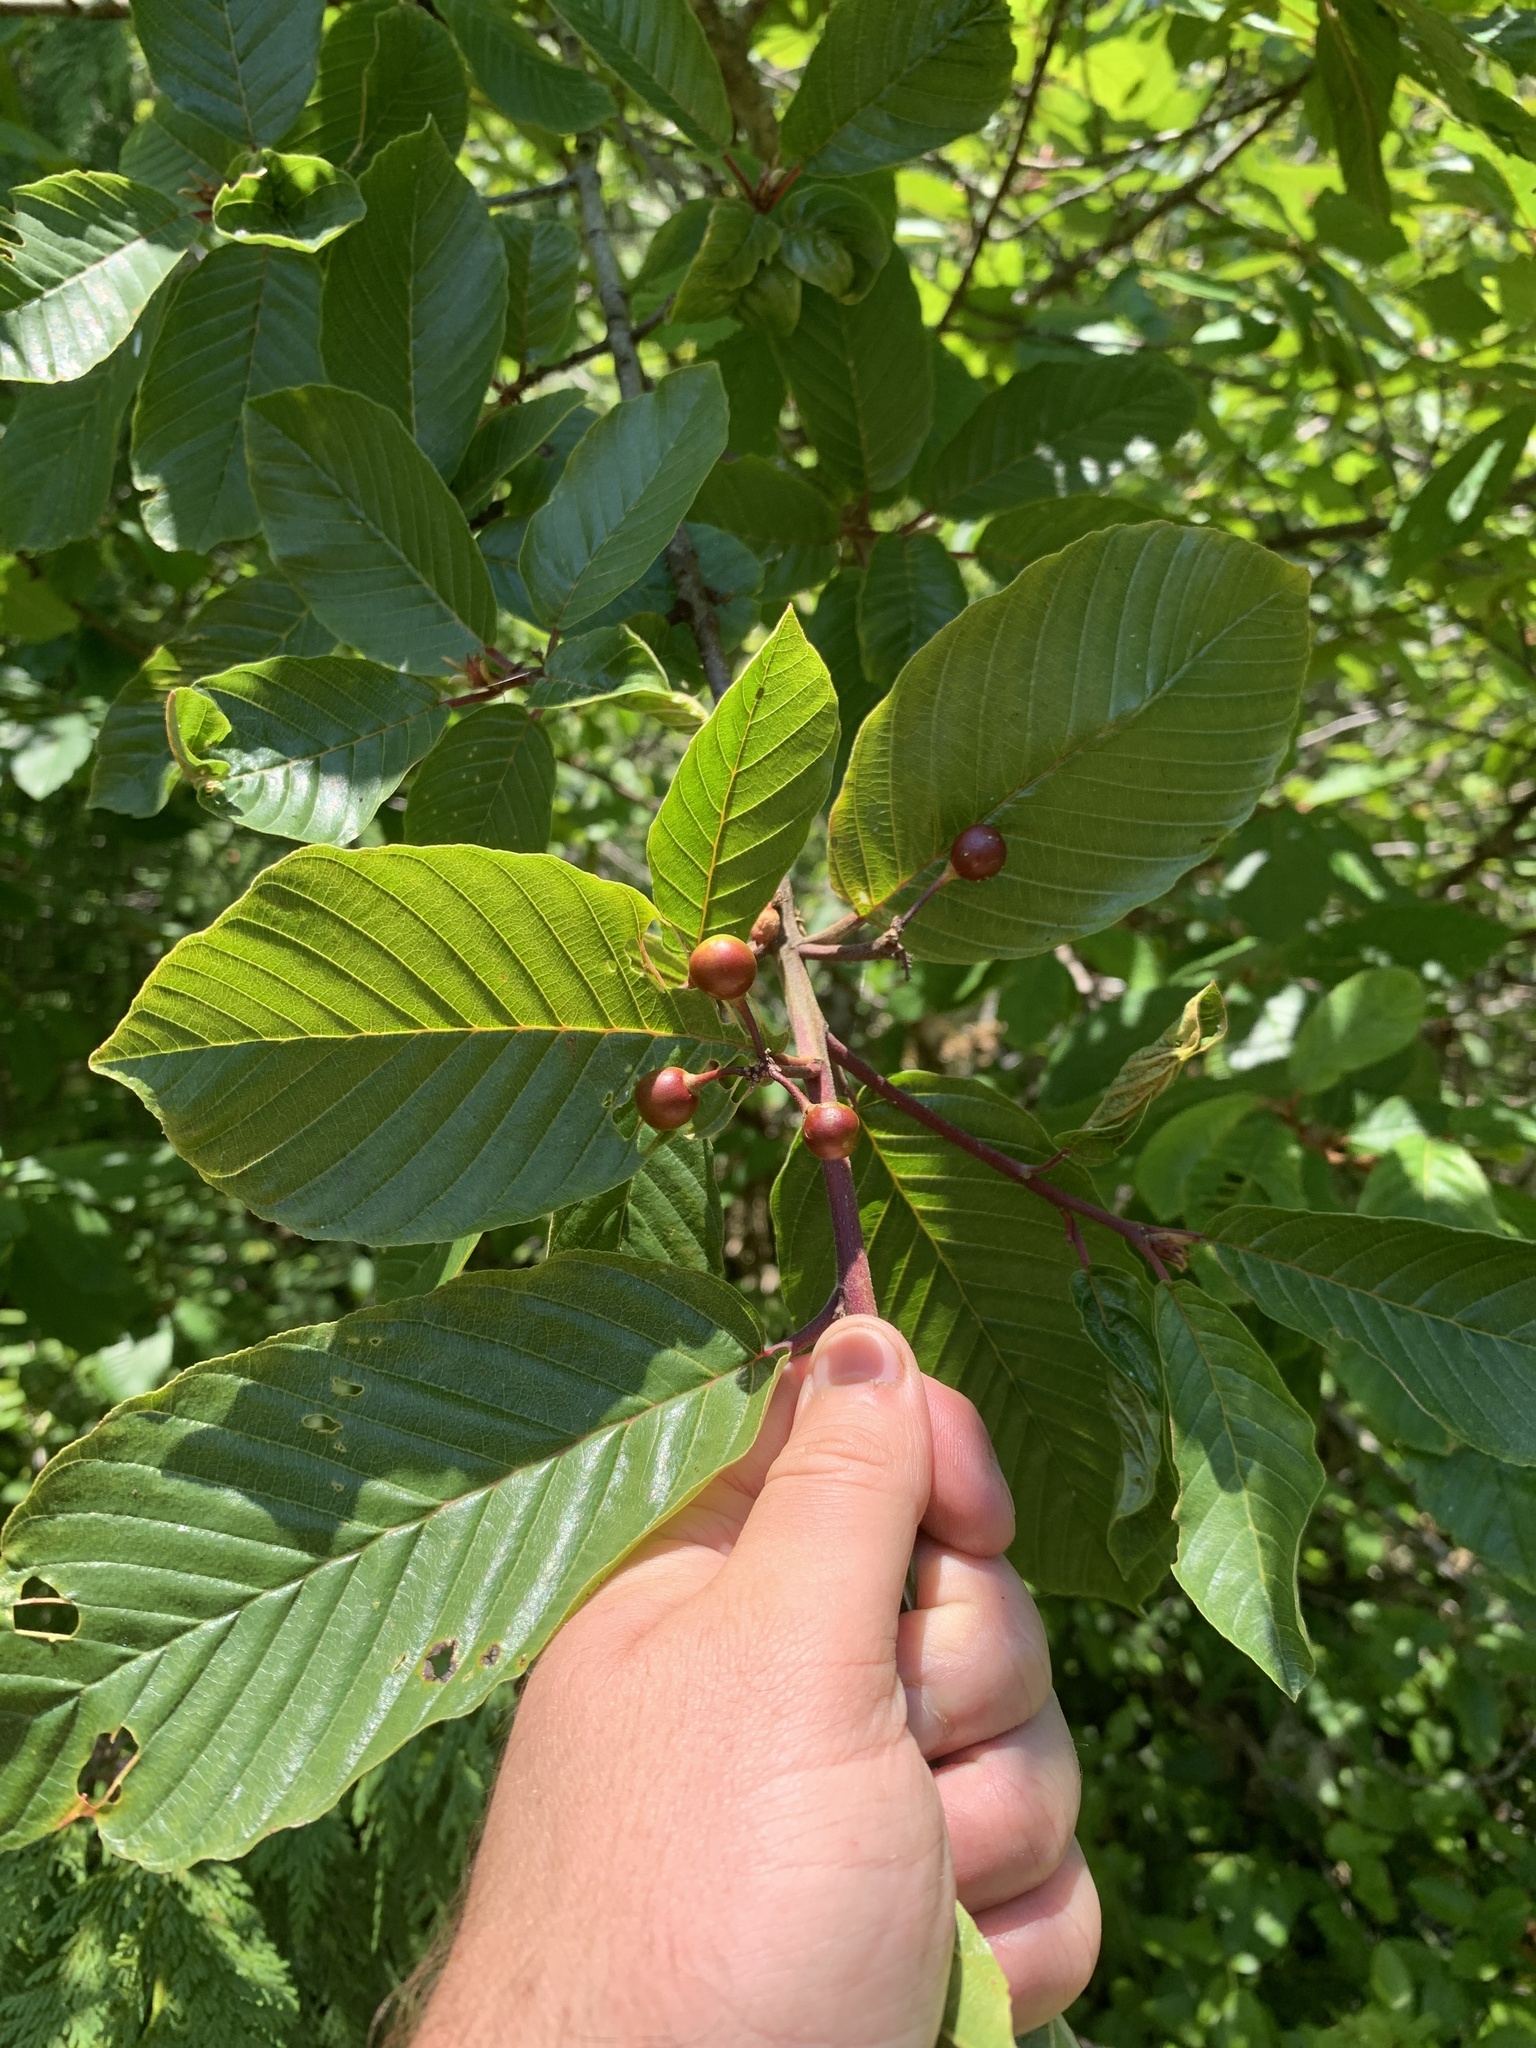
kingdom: Plantae
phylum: Tracheophyta
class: Magnoliopsida
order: Rosales
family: Rhamnaceae
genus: Frangula
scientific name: Frangula purshiana
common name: Cascara buckthorn
